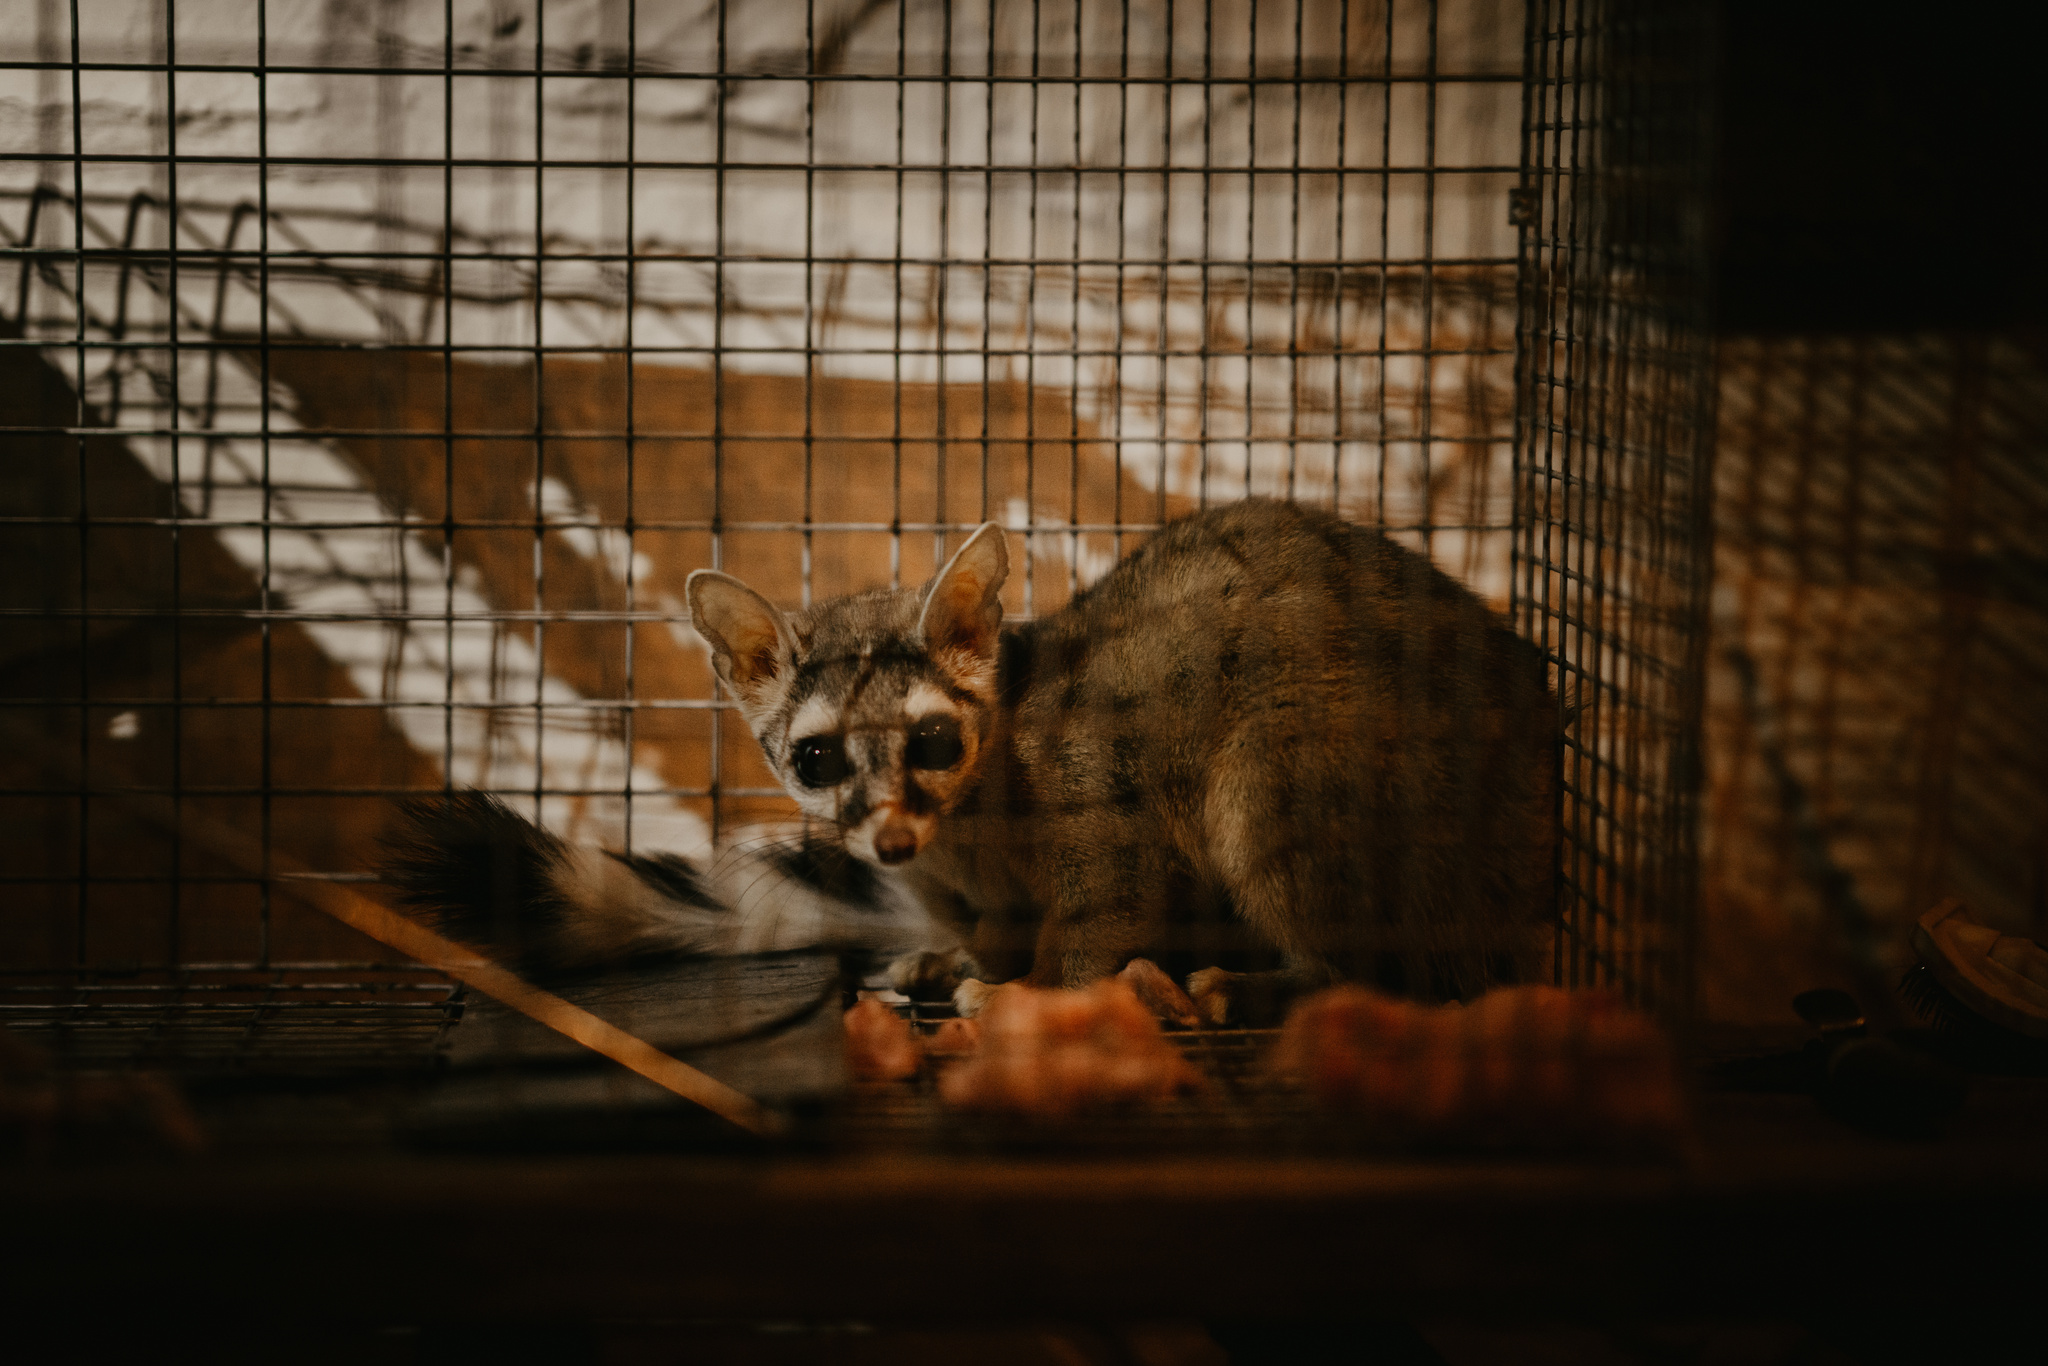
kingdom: Animalia
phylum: Chordata
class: Mammalia
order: Carnivora
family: Procyonidae
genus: Bassariscus
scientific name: Bassariscus astutus
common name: Ringtail
